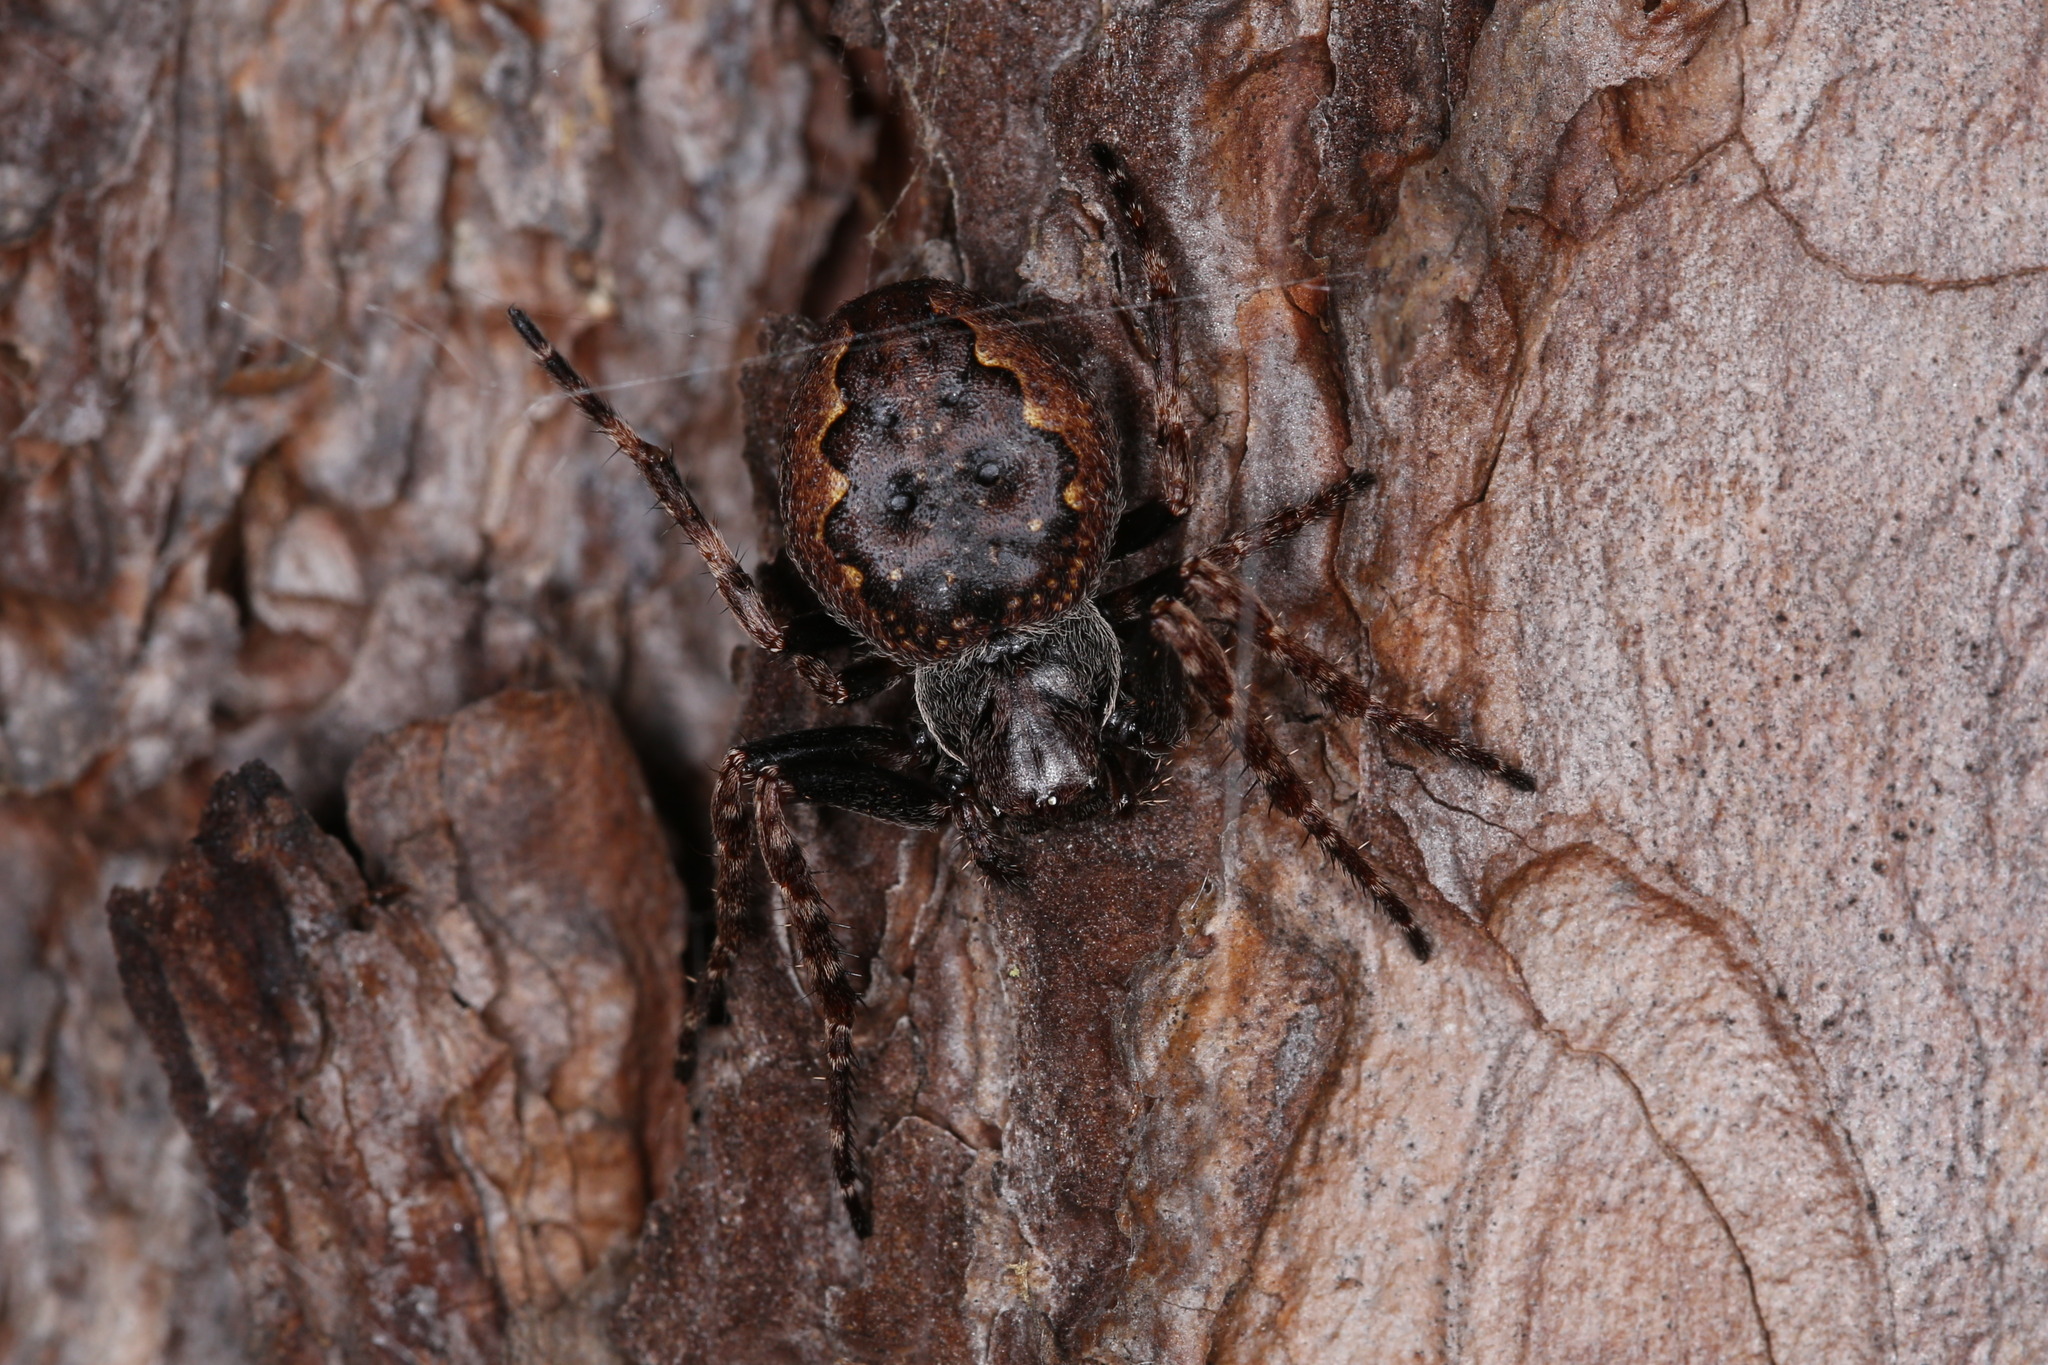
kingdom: Animalia
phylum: Arthropoda
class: Arachnida
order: Araneae
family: Araneidae
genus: Nuctenea
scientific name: Nuctenea umbratica
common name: Toad spider
